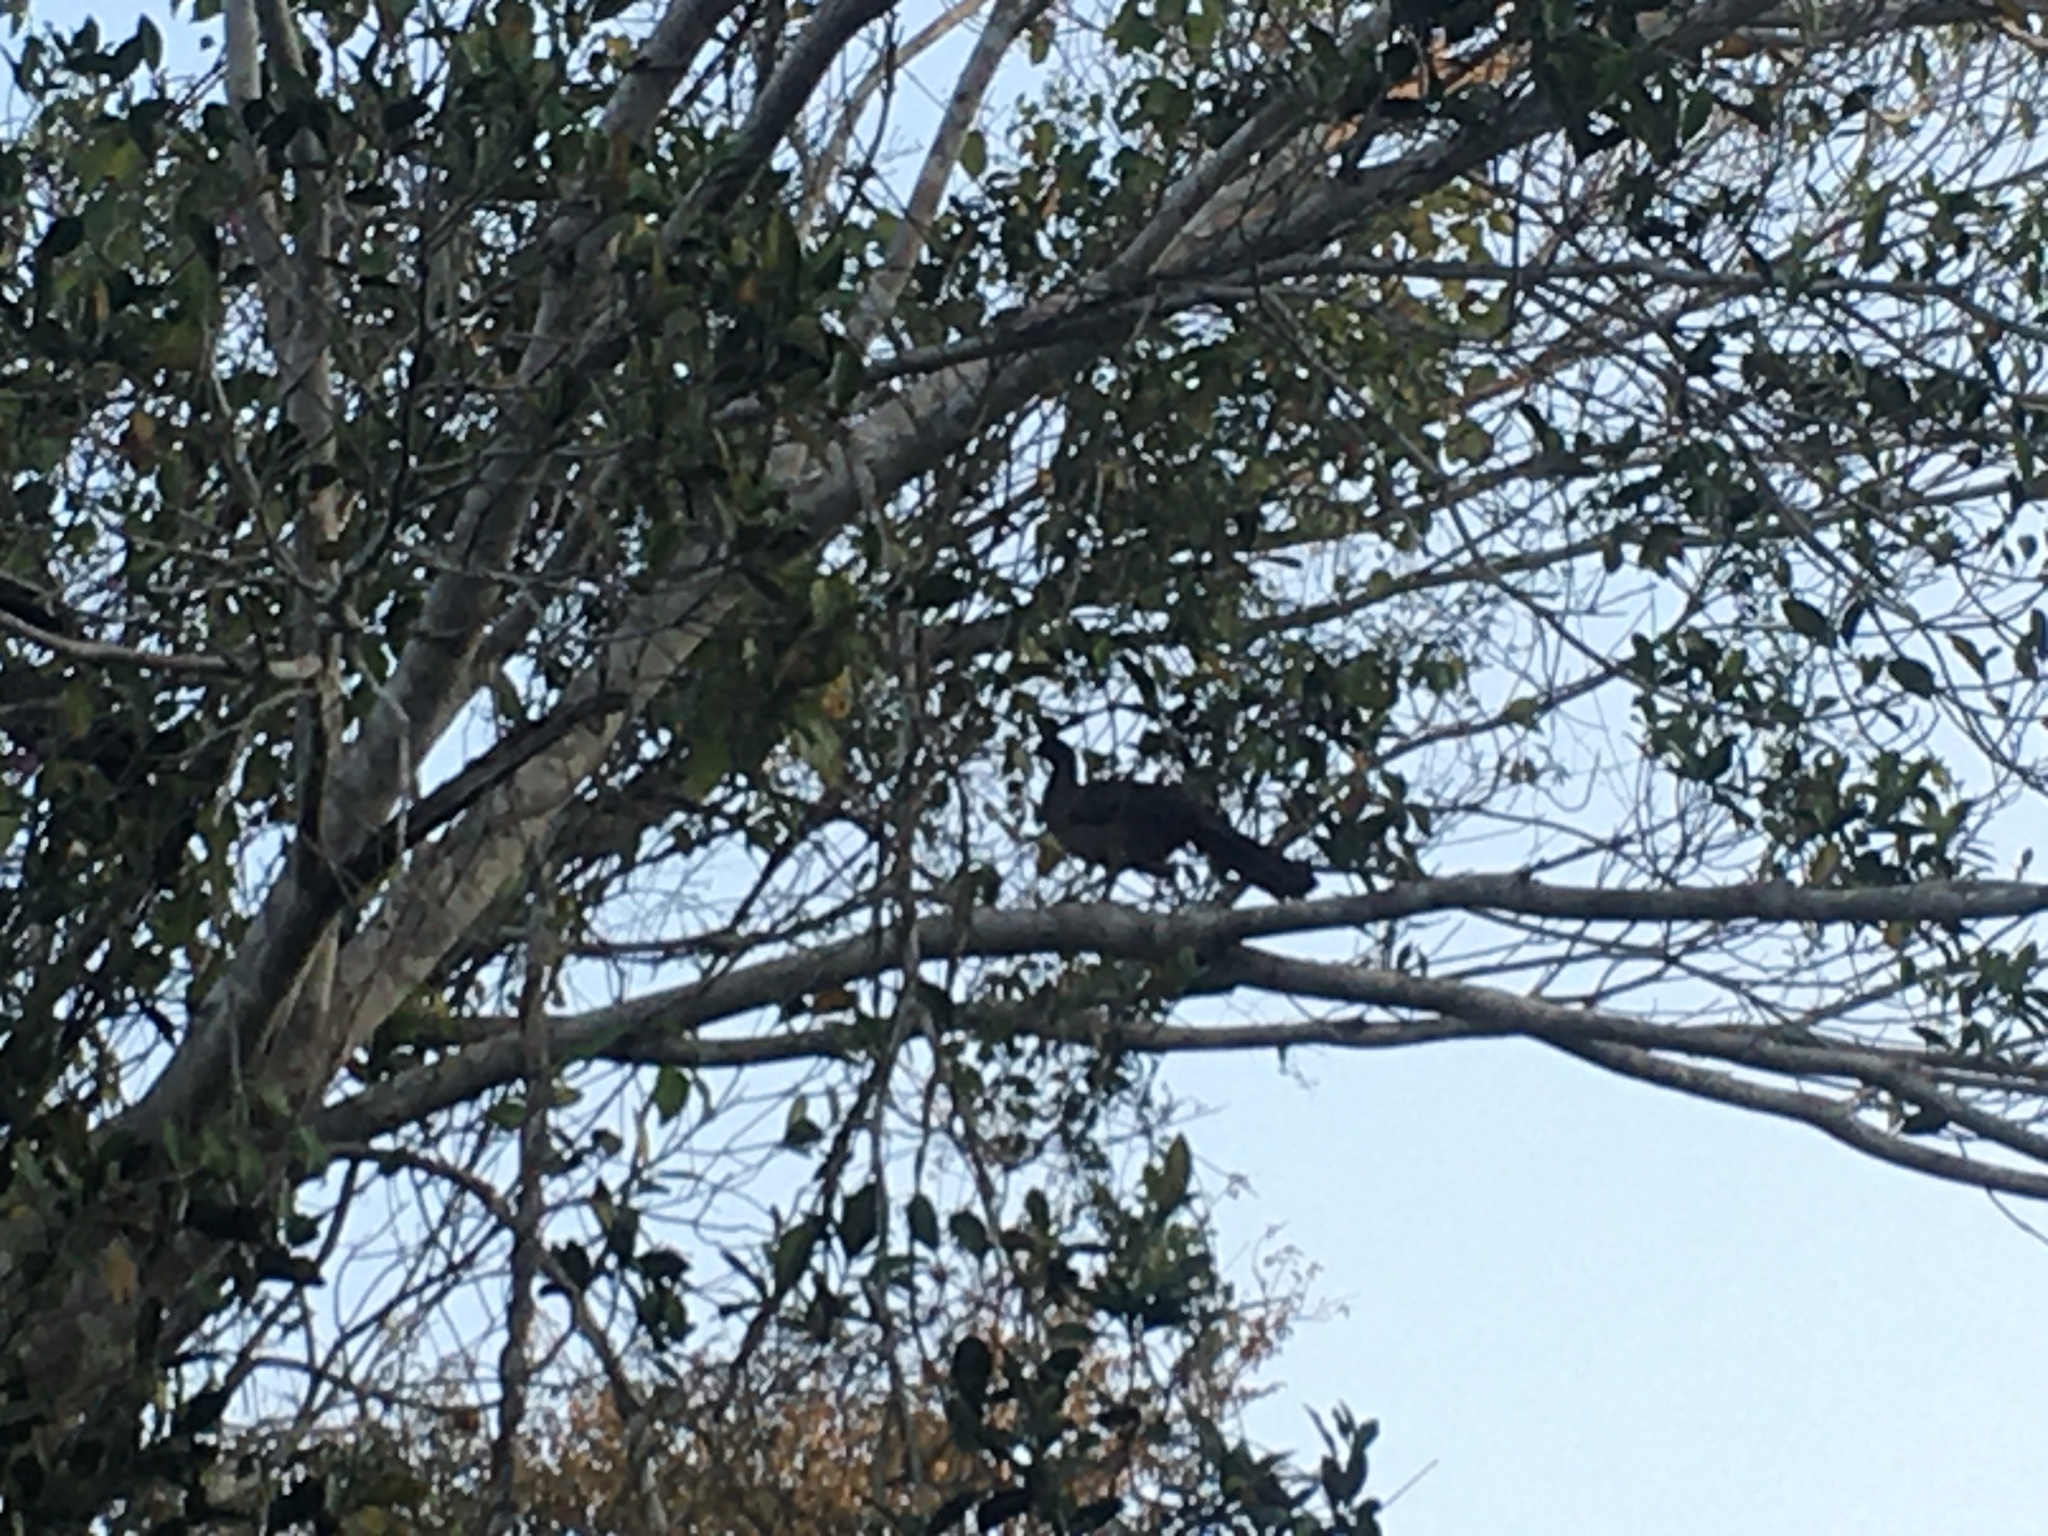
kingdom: Animalia
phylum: Chordata
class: Aves
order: Galliformes
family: Cracidae
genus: Penelope
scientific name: Penelope superciliaris
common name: Rusty-margined guan
